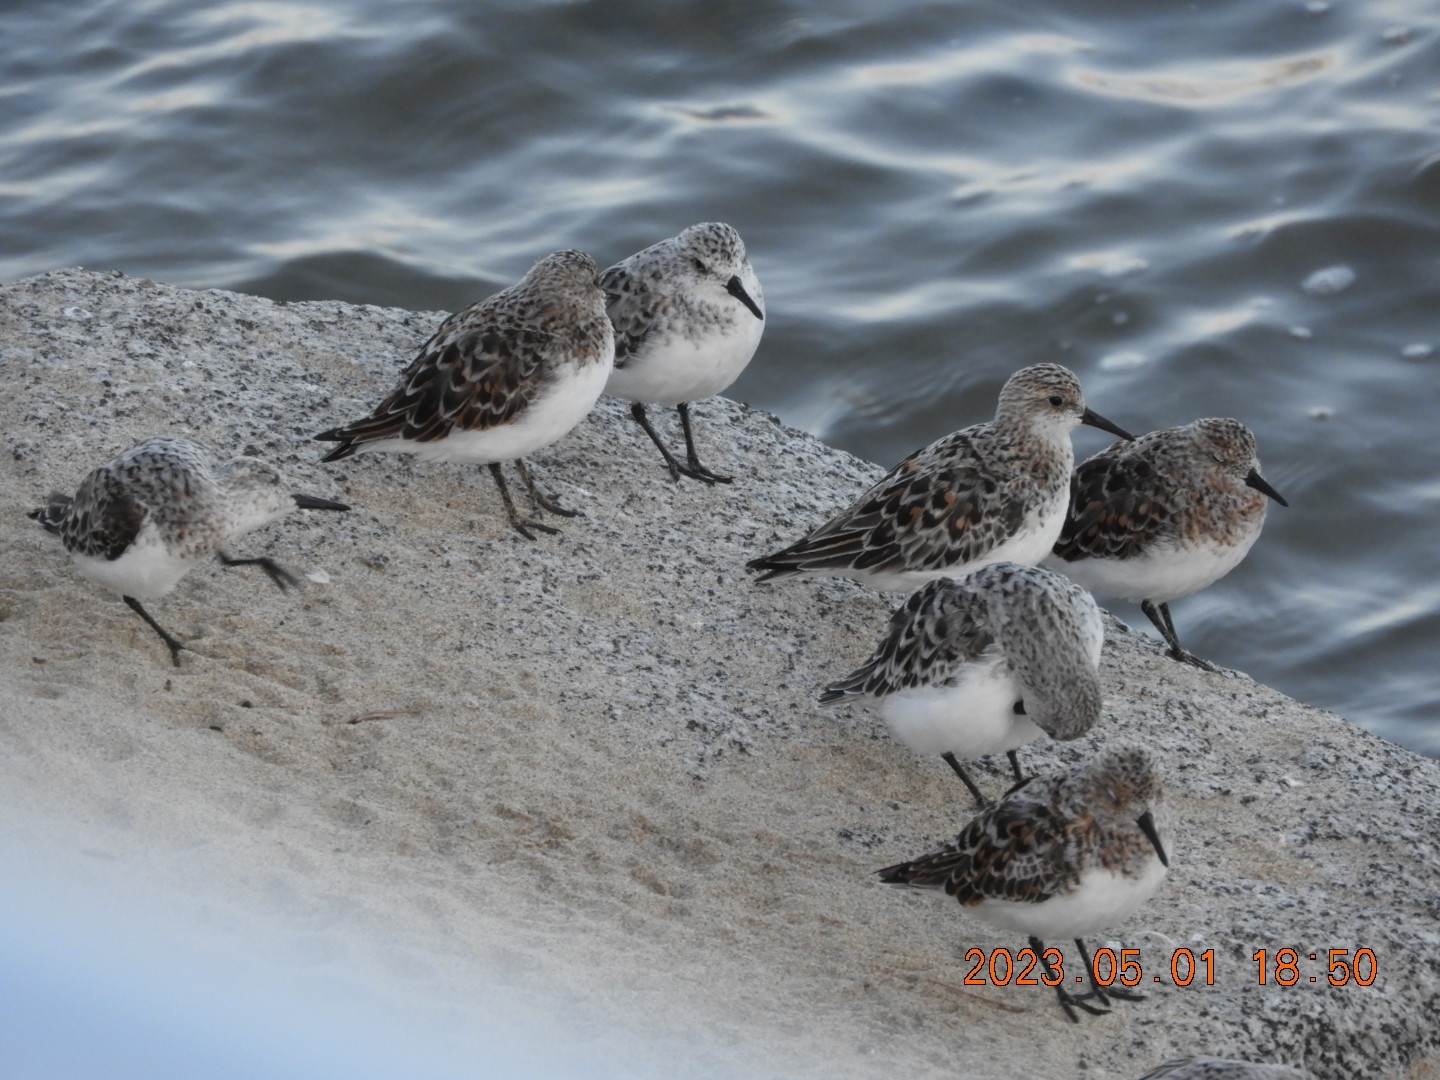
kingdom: Animalia
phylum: Chordata
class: Aves
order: Charadriiformes
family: Scolopacidae
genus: Calidris
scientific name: Calidris alba
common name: Sanderling
